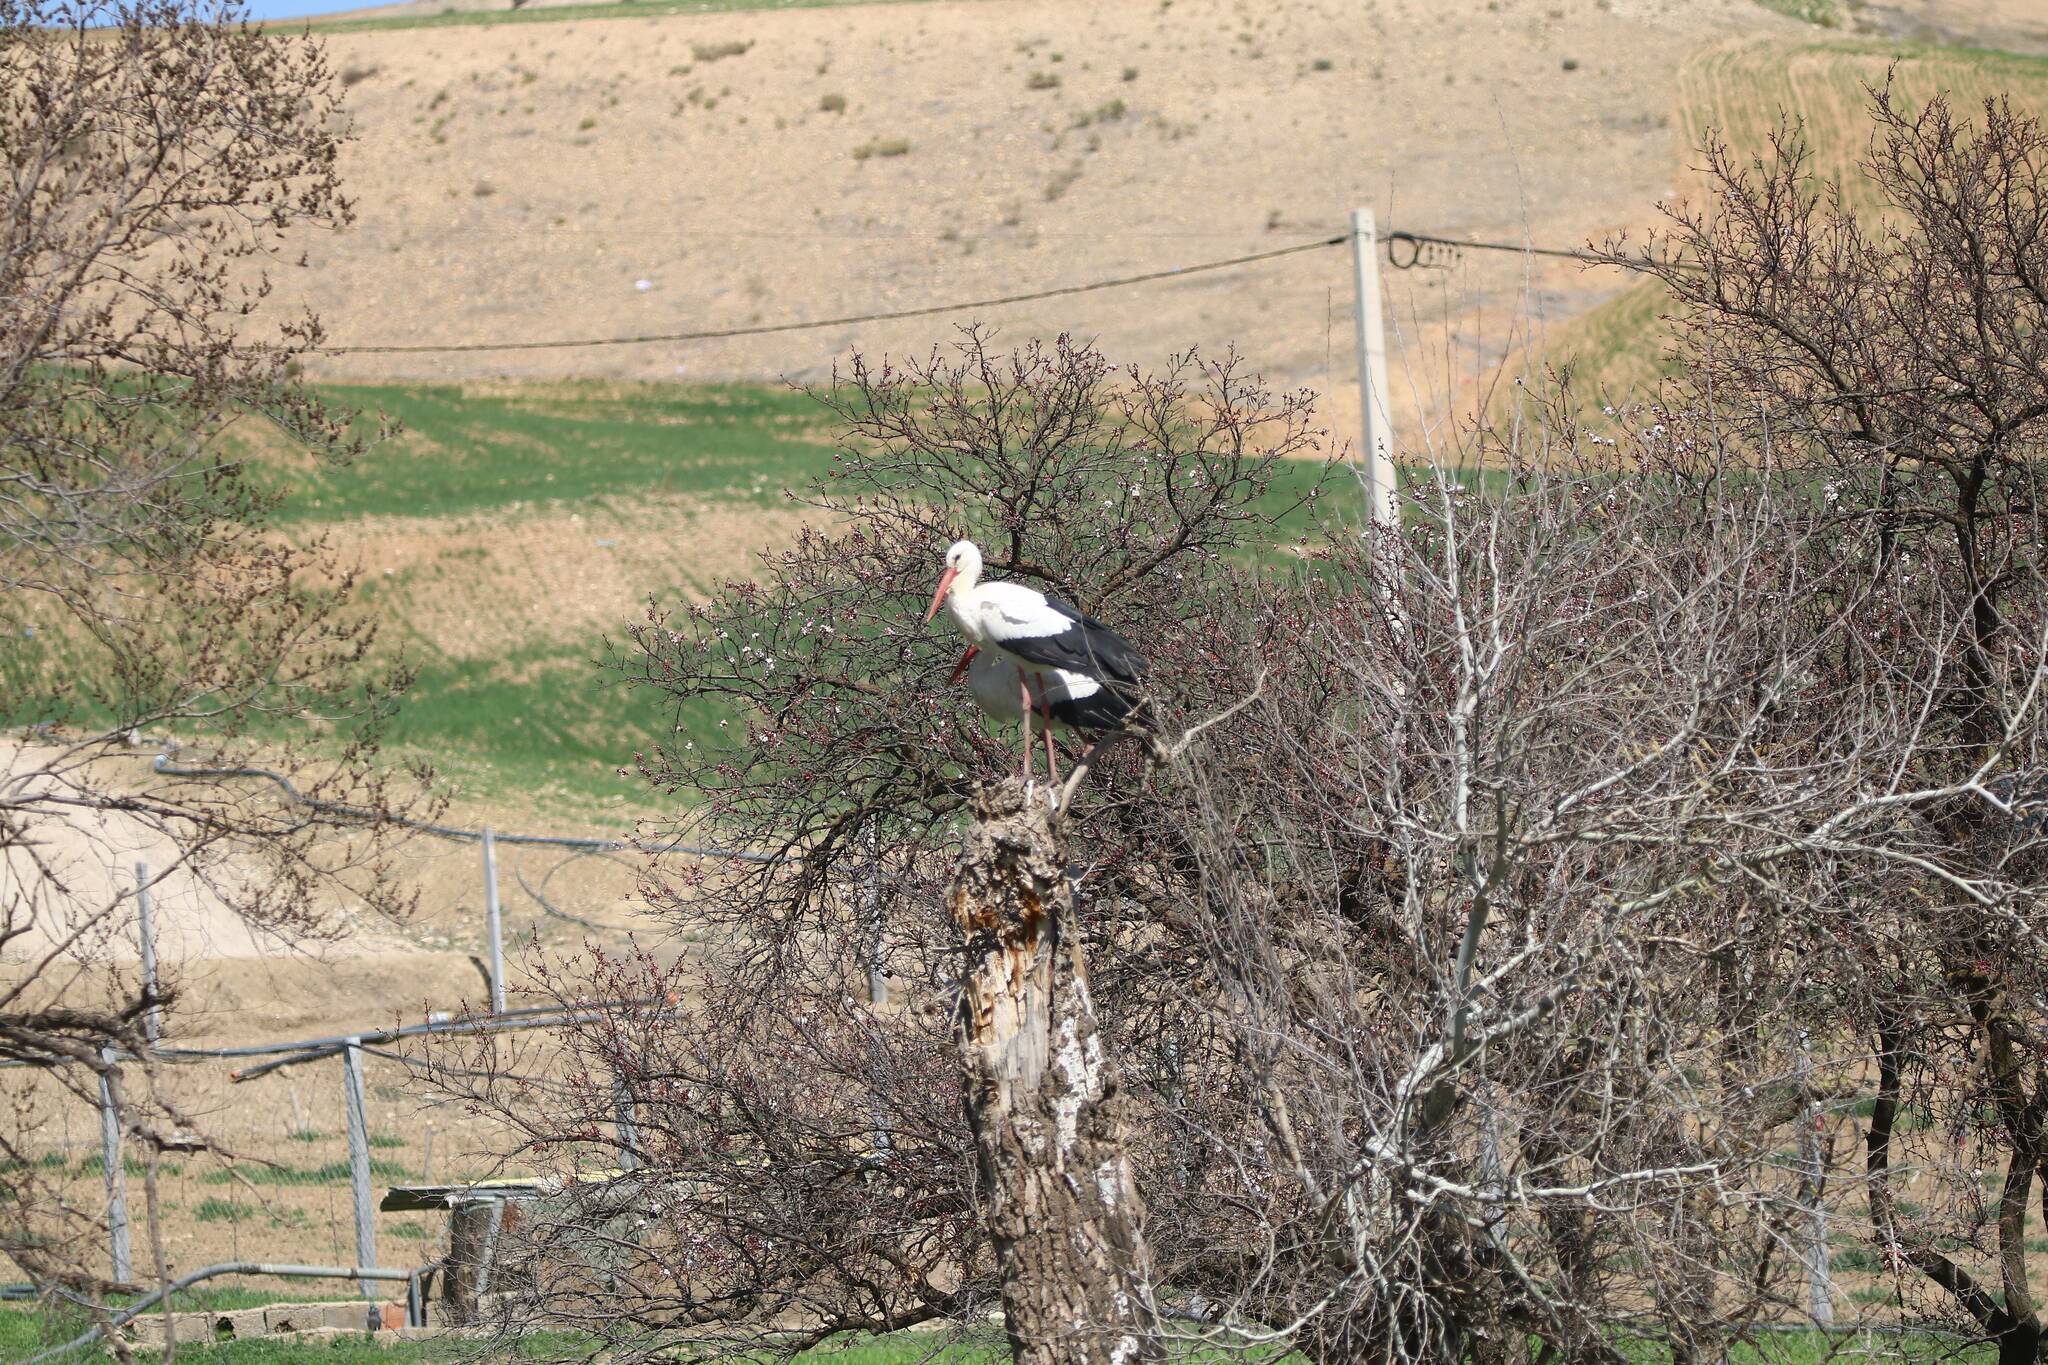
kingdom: Animalia
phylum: Chordata
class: Aves
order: Ciconiiformes
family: Ciconiidae
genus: Ciconia
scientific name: Ciconia ciconia
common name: White stork
